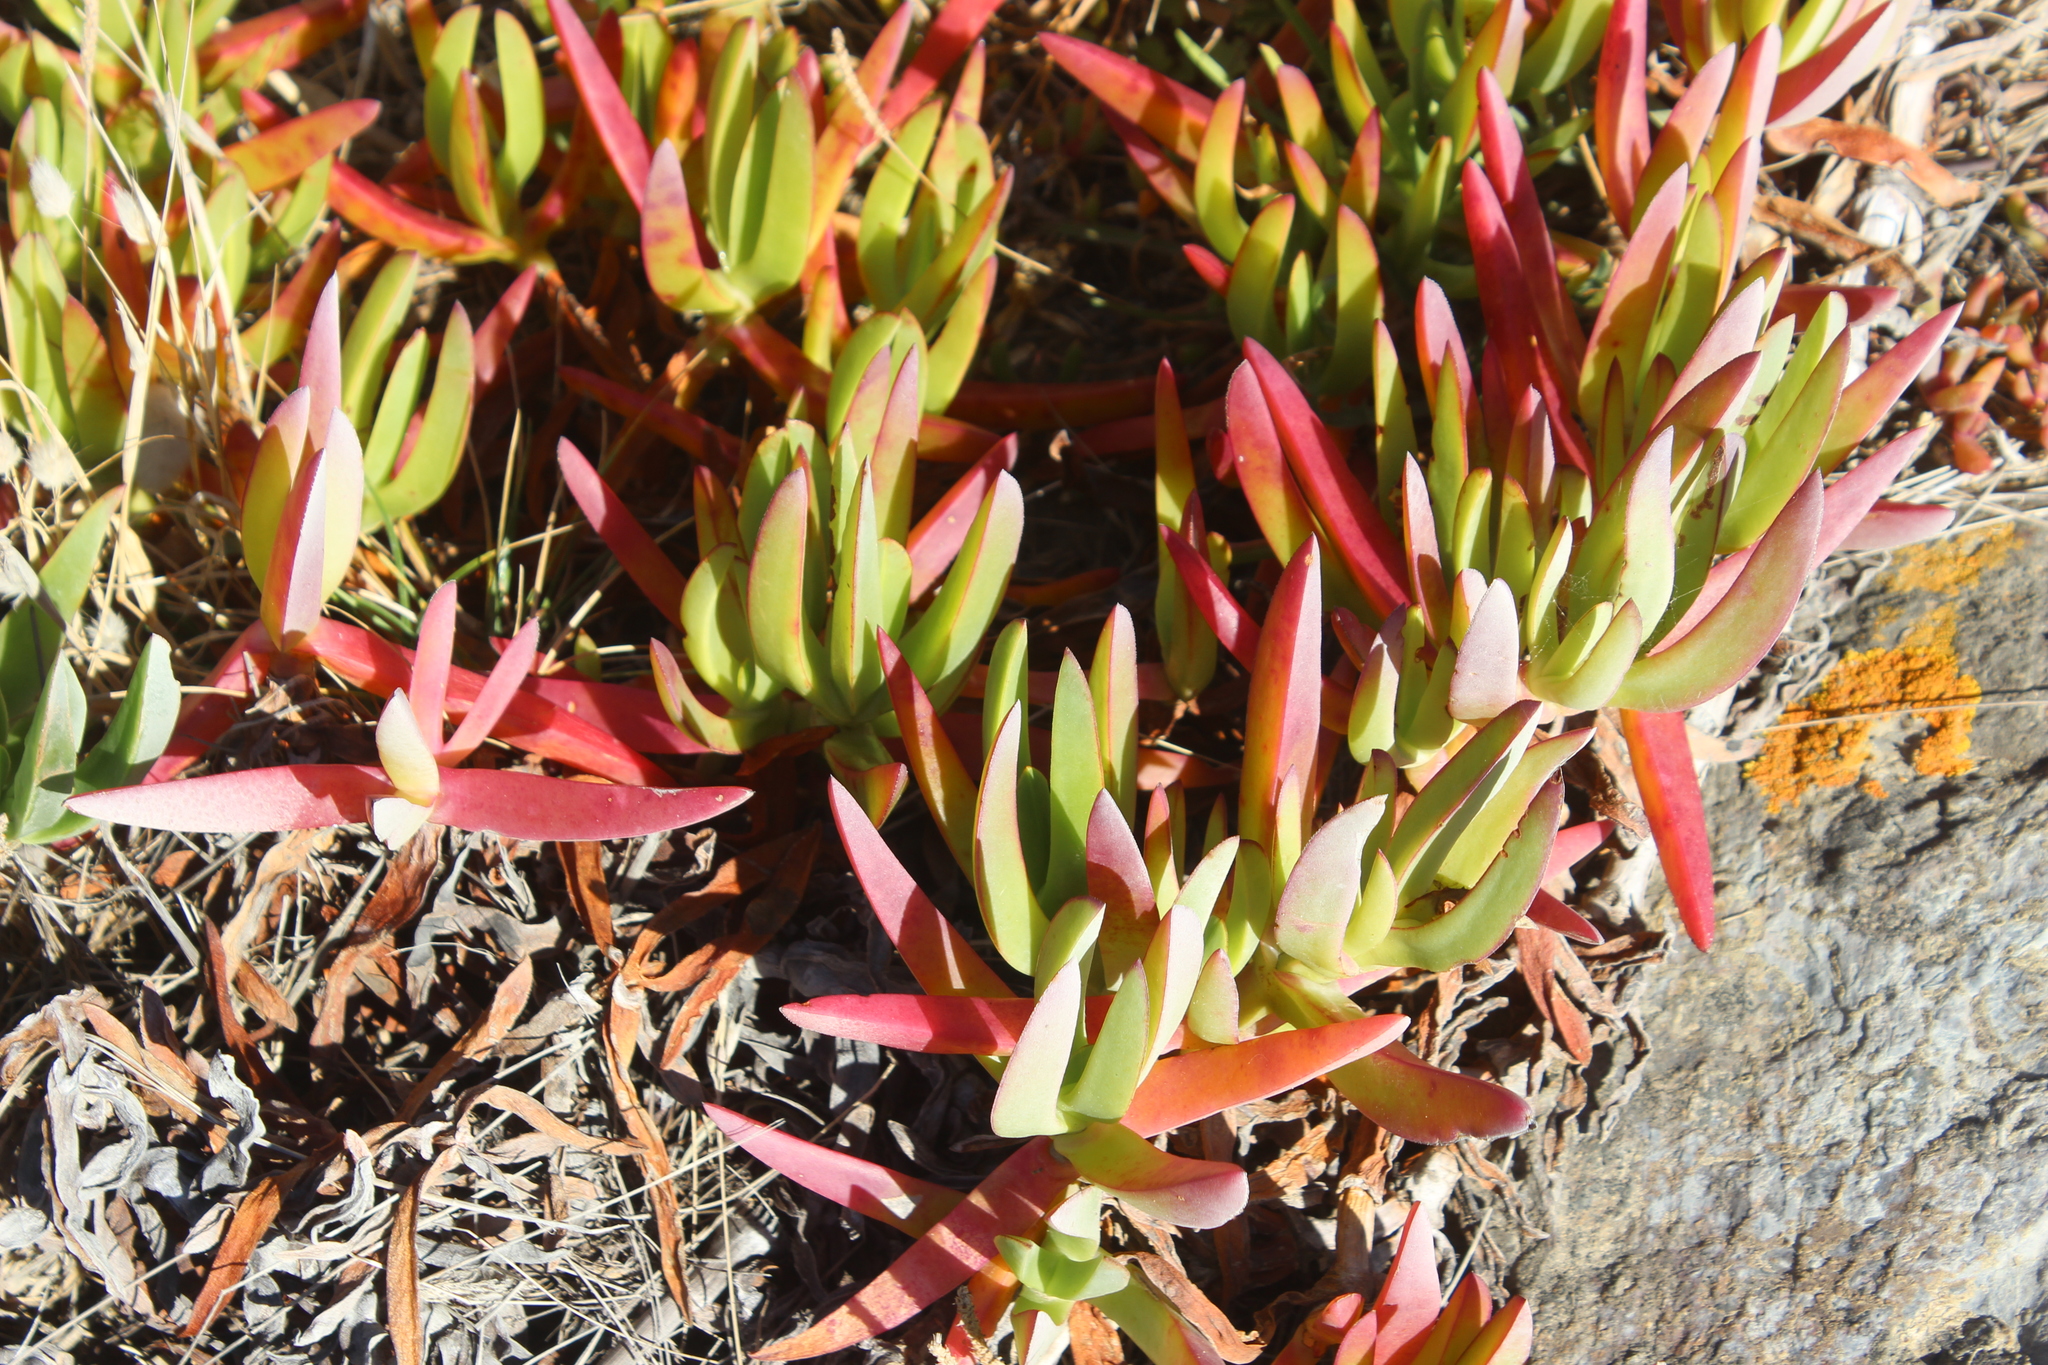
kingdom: Plantae
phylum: Tracheophyta
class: Magnoliopsida
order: Caryophyllales
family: Aizoaceae
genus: Carpobrotus
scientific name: Carpobrotus edulis
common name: Hottentot-fig
